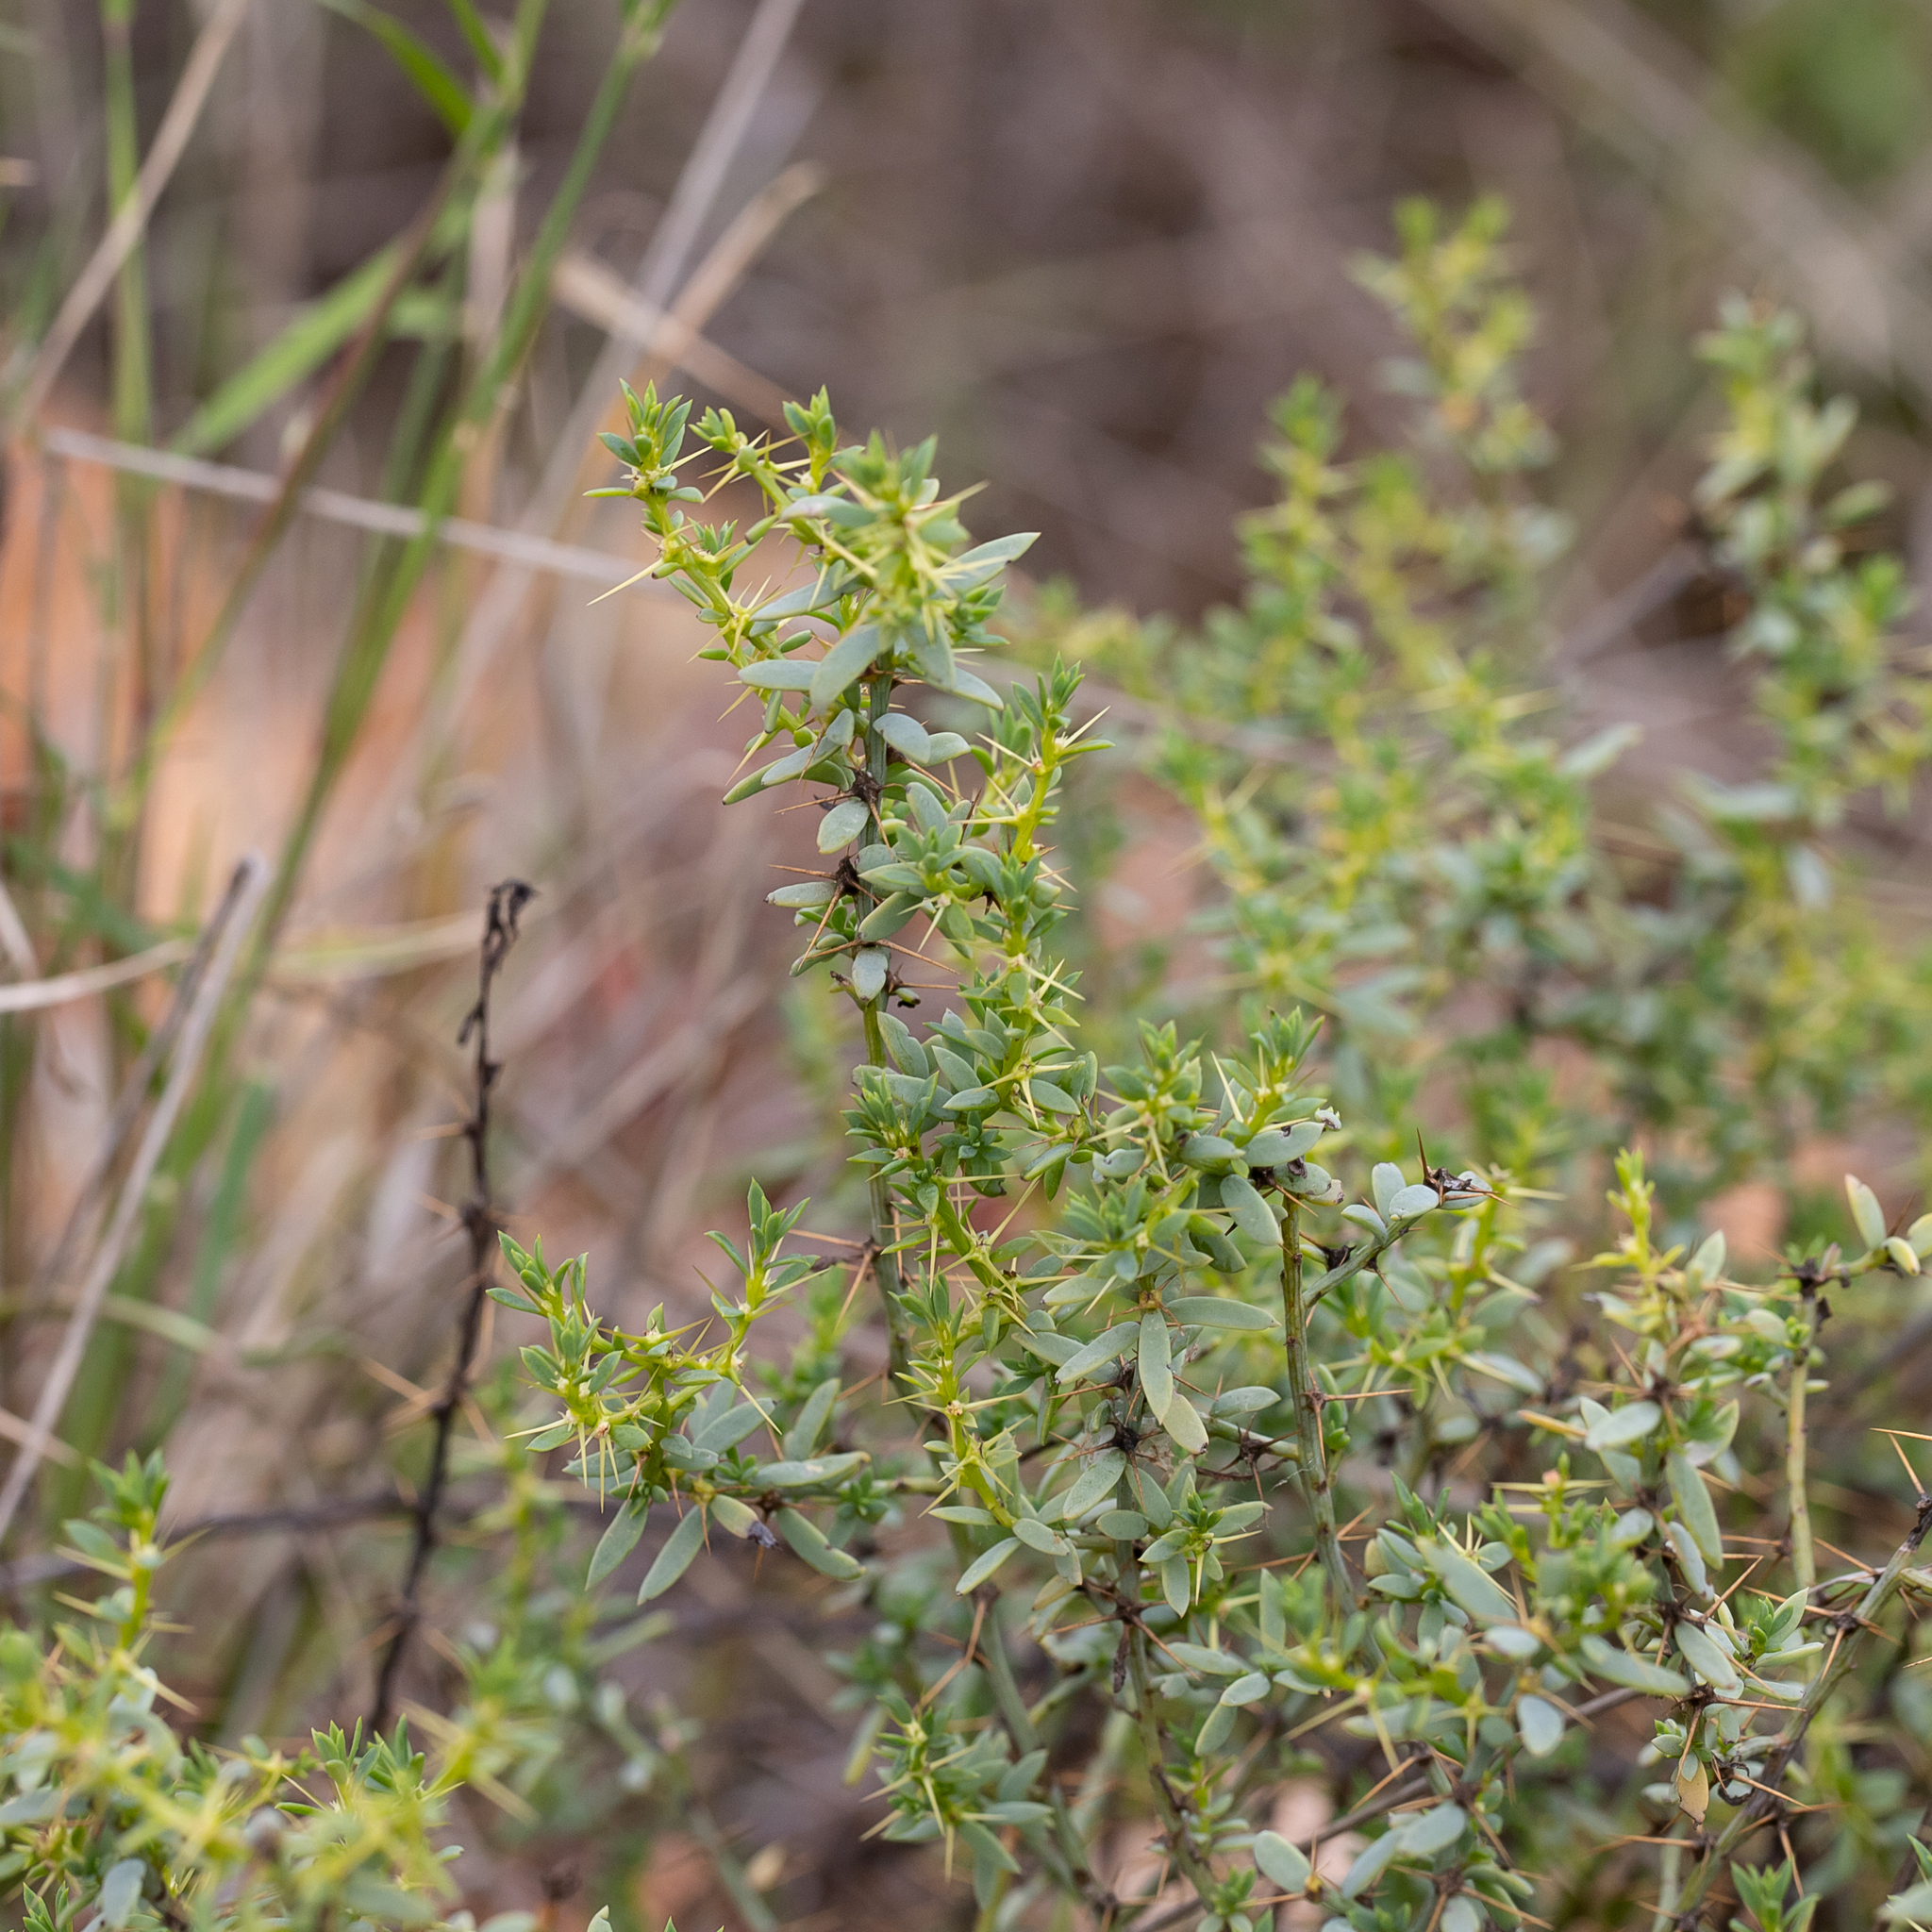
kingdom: Plantae
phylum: Tracheophyta
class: Magnoliopsida
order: Caryophyllales
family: Amaranthaceae
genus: Sclerolaena
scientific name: Sclerolaena muricata
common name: Roly-poly
